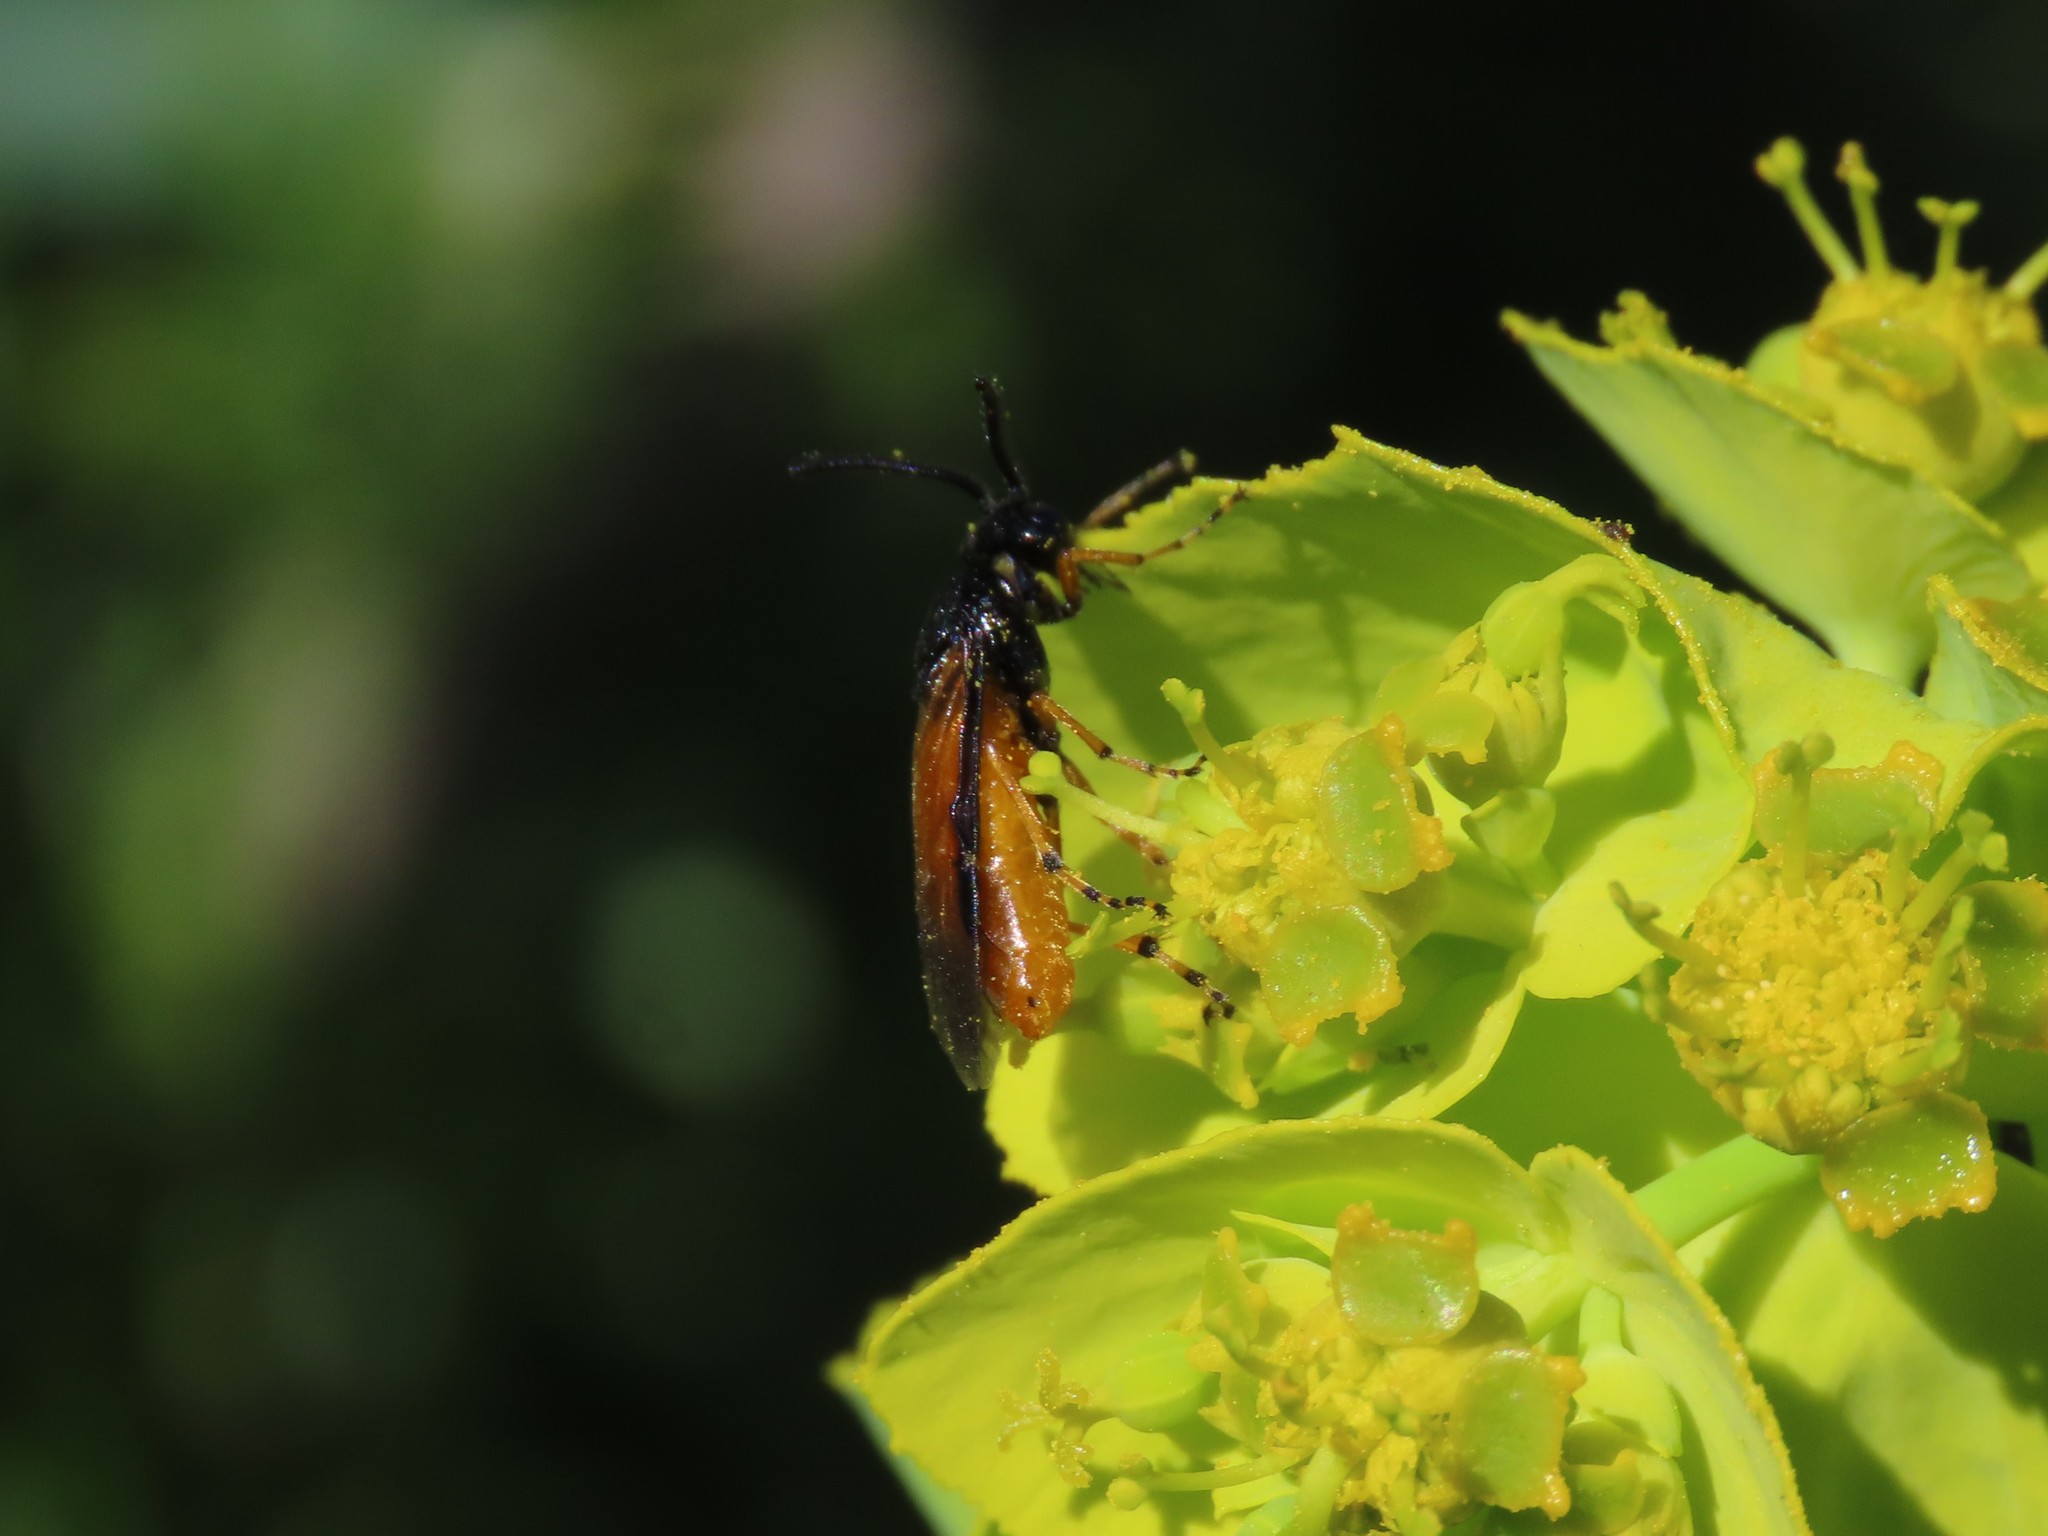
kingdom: Animalia
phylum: Arthropoda
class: Insecta
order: Hymenoptera
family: Argidae
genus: Arge
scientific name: Arge ochropus
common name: Argid sawfly
